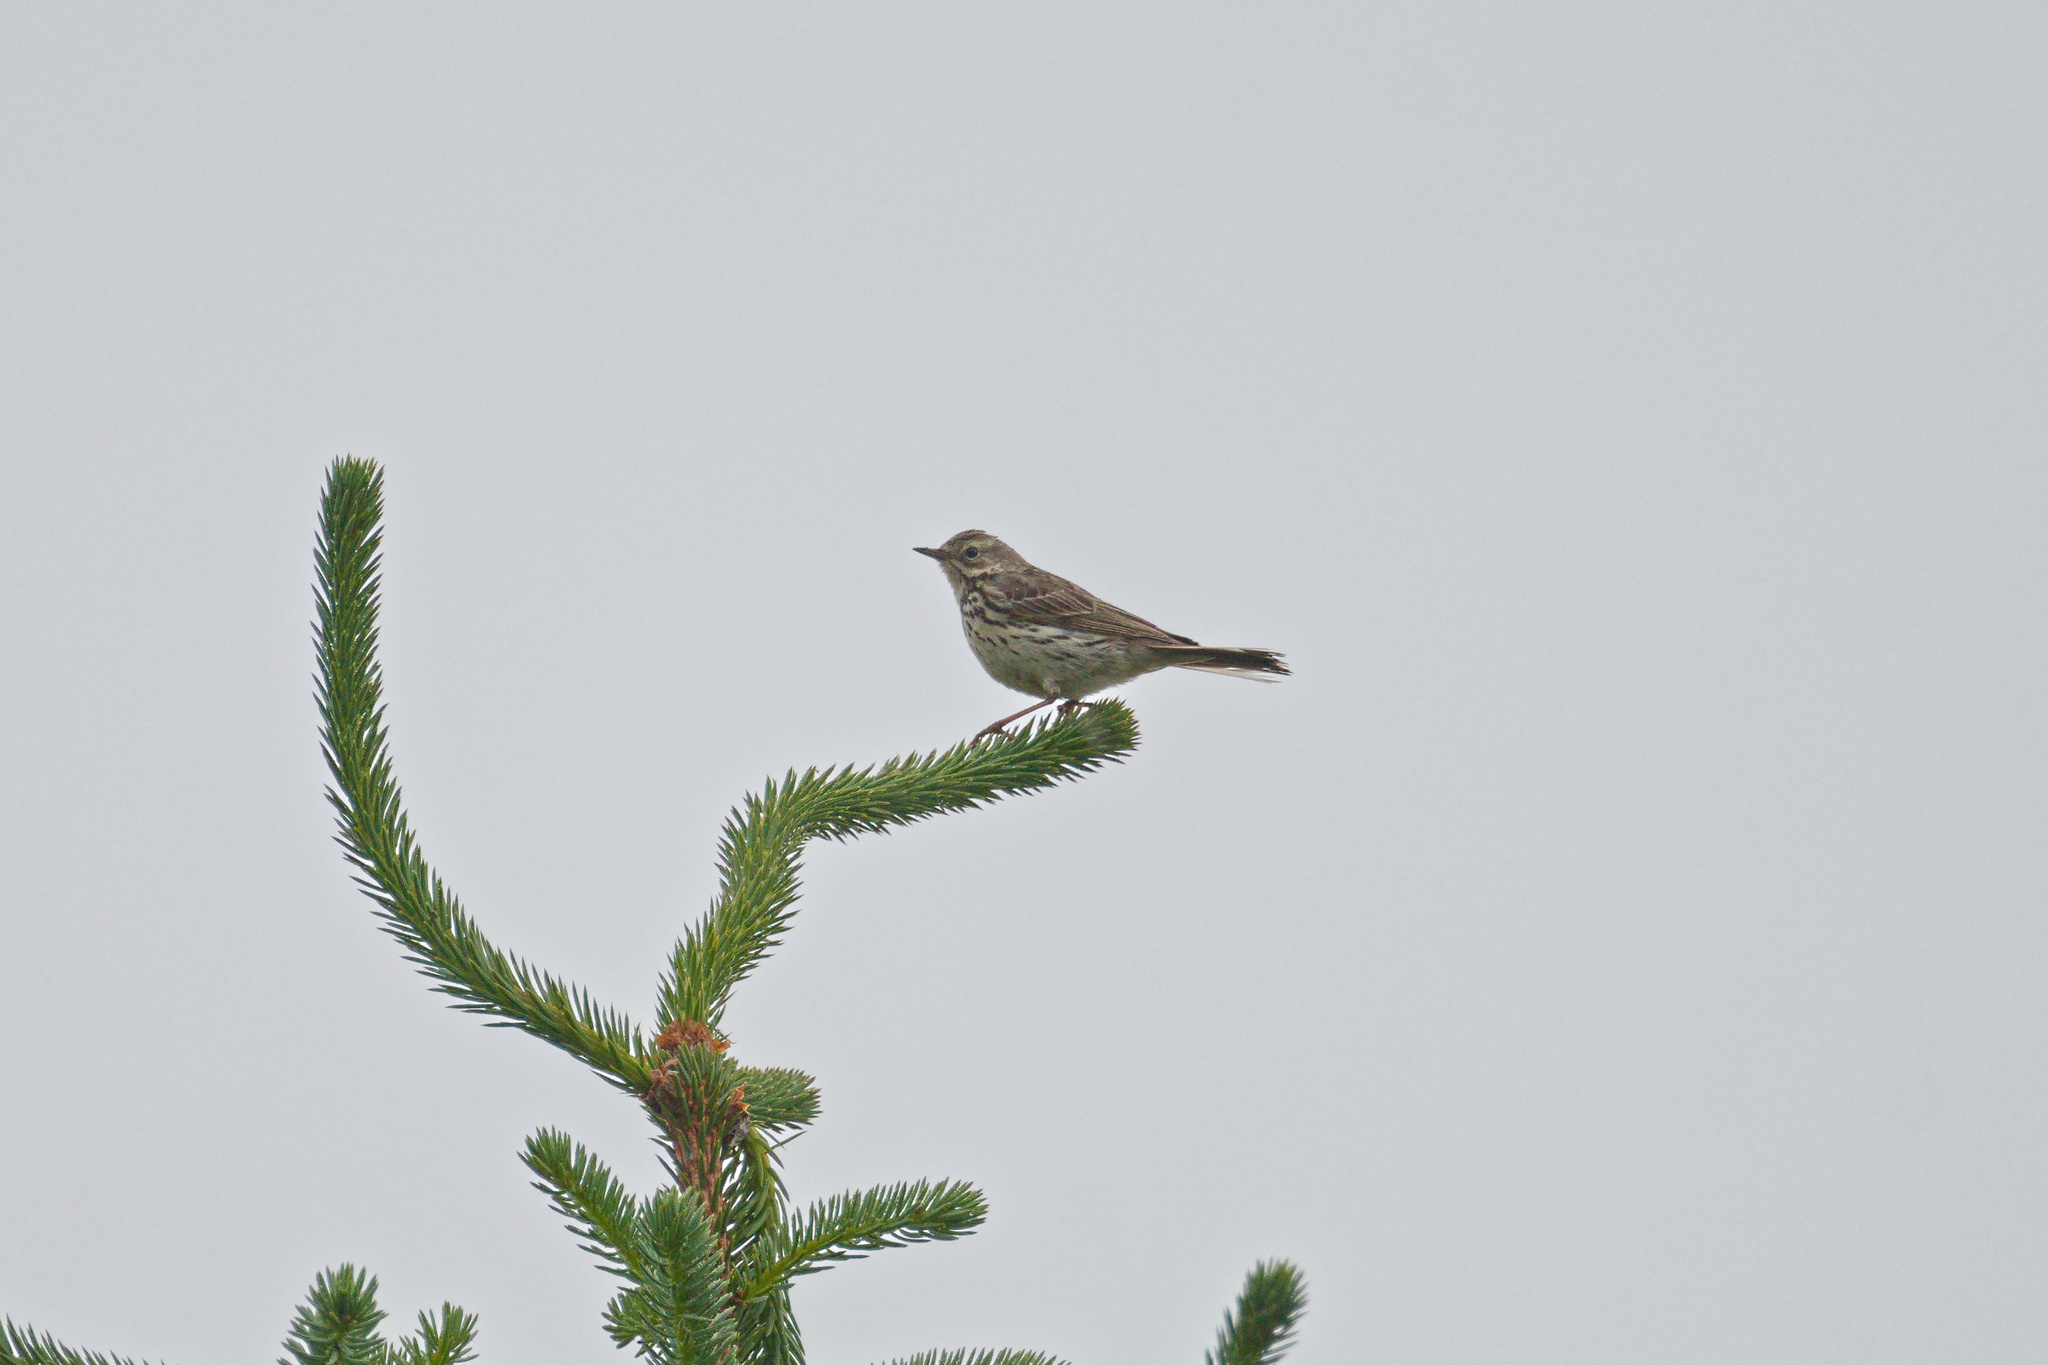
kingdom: Animalia
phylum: Chordata
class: Aves
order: Passeriformes
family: Motacillidae
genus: Anthus
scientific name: Anthus pratensis
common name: Meadow pipit
